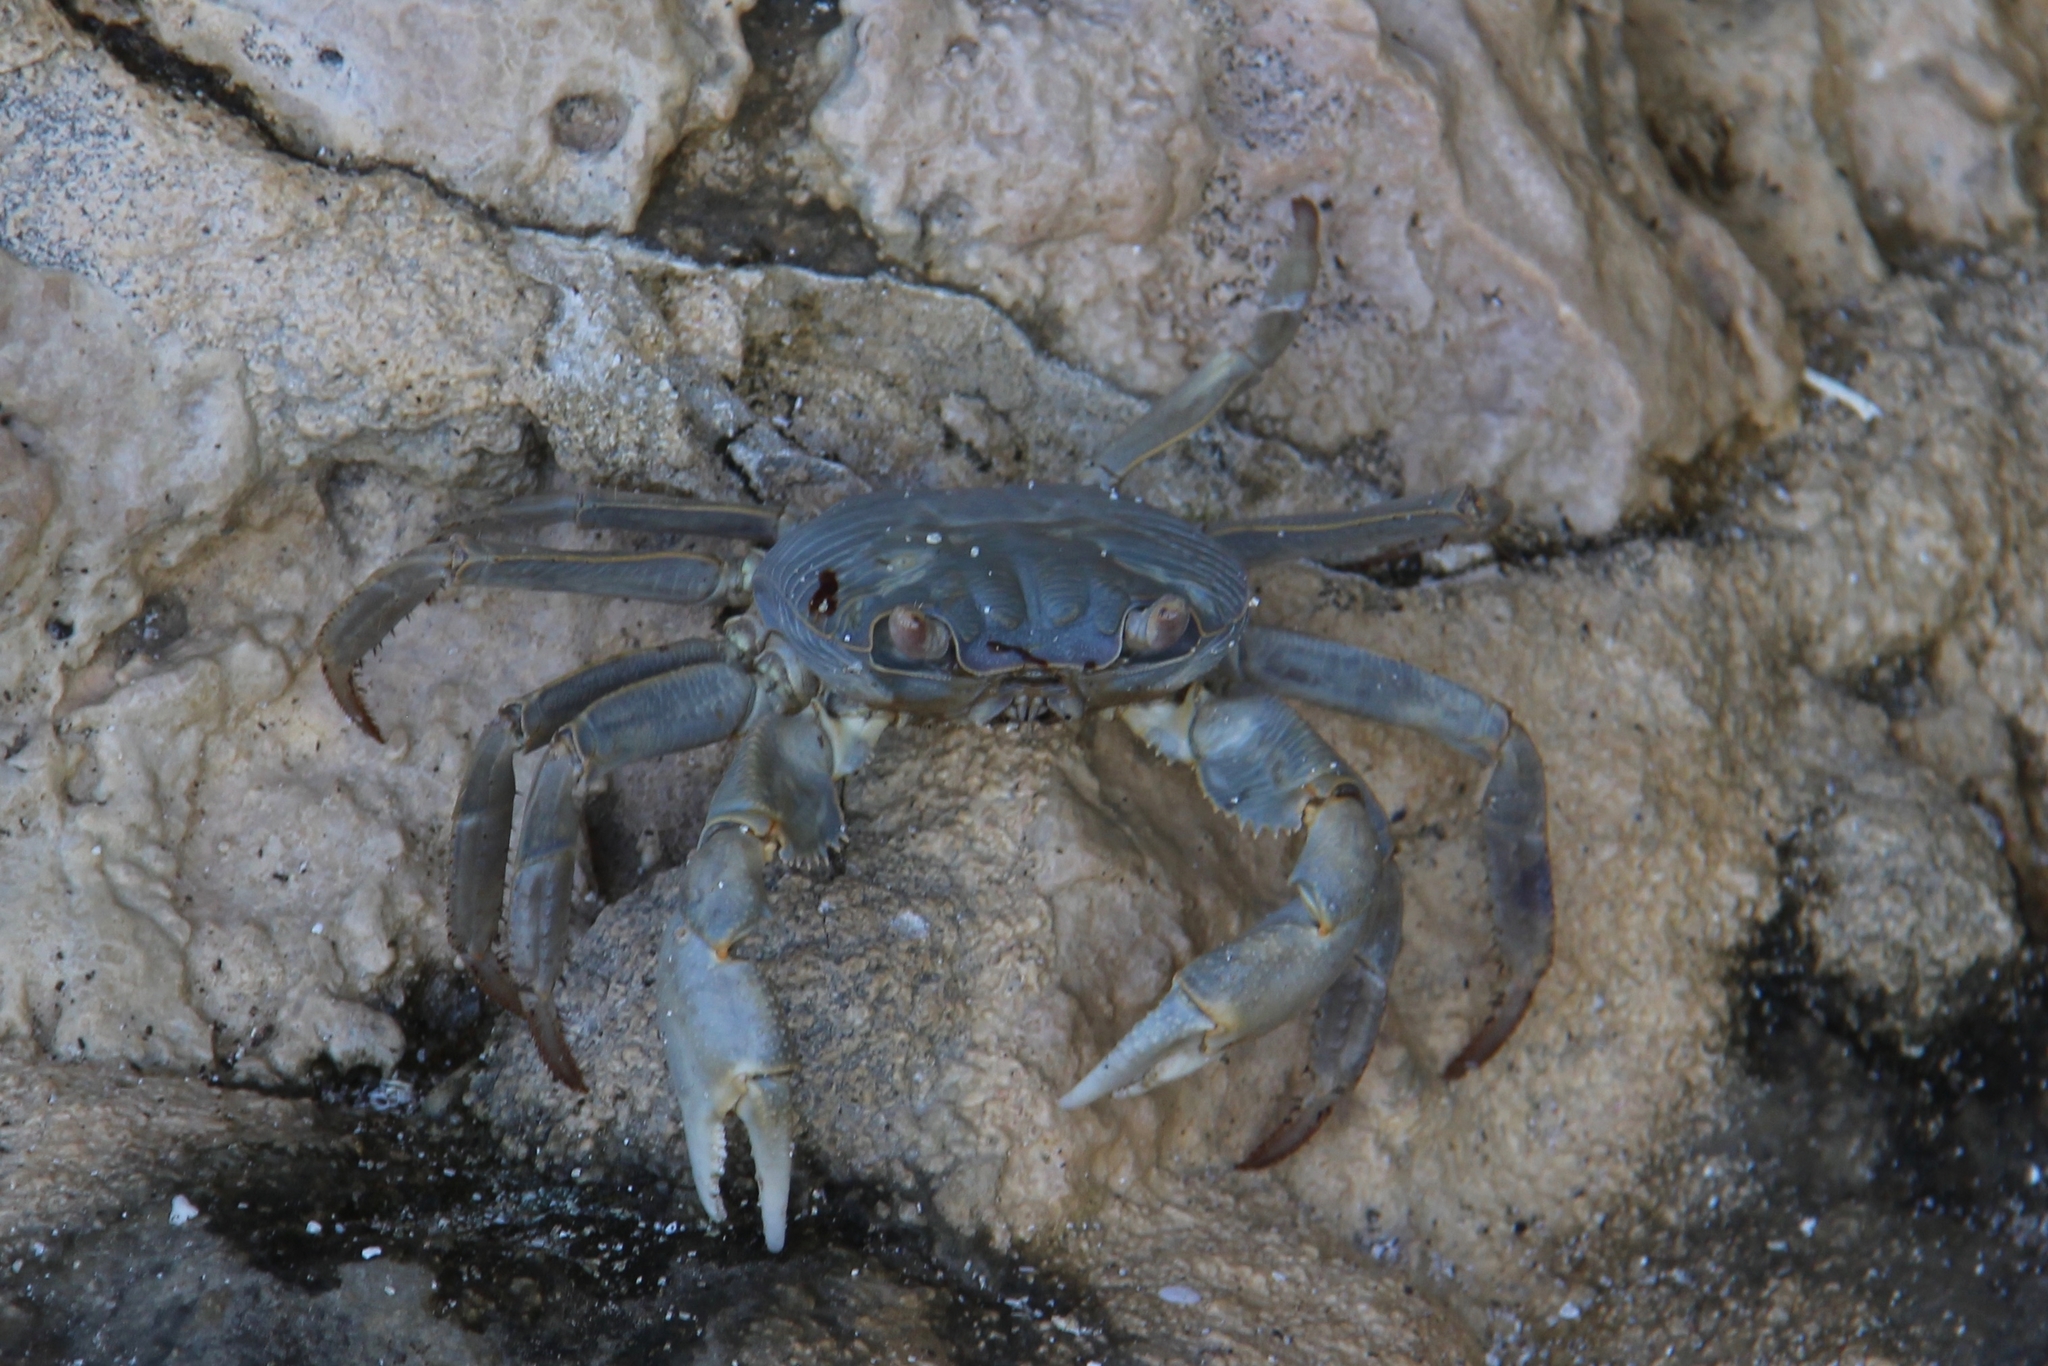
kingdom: Animalia
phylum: Arthropoda
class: Malacostraca
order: Decapoda
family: Grapsidae
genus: Geograpsus
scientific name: Geograpsus crinipes
